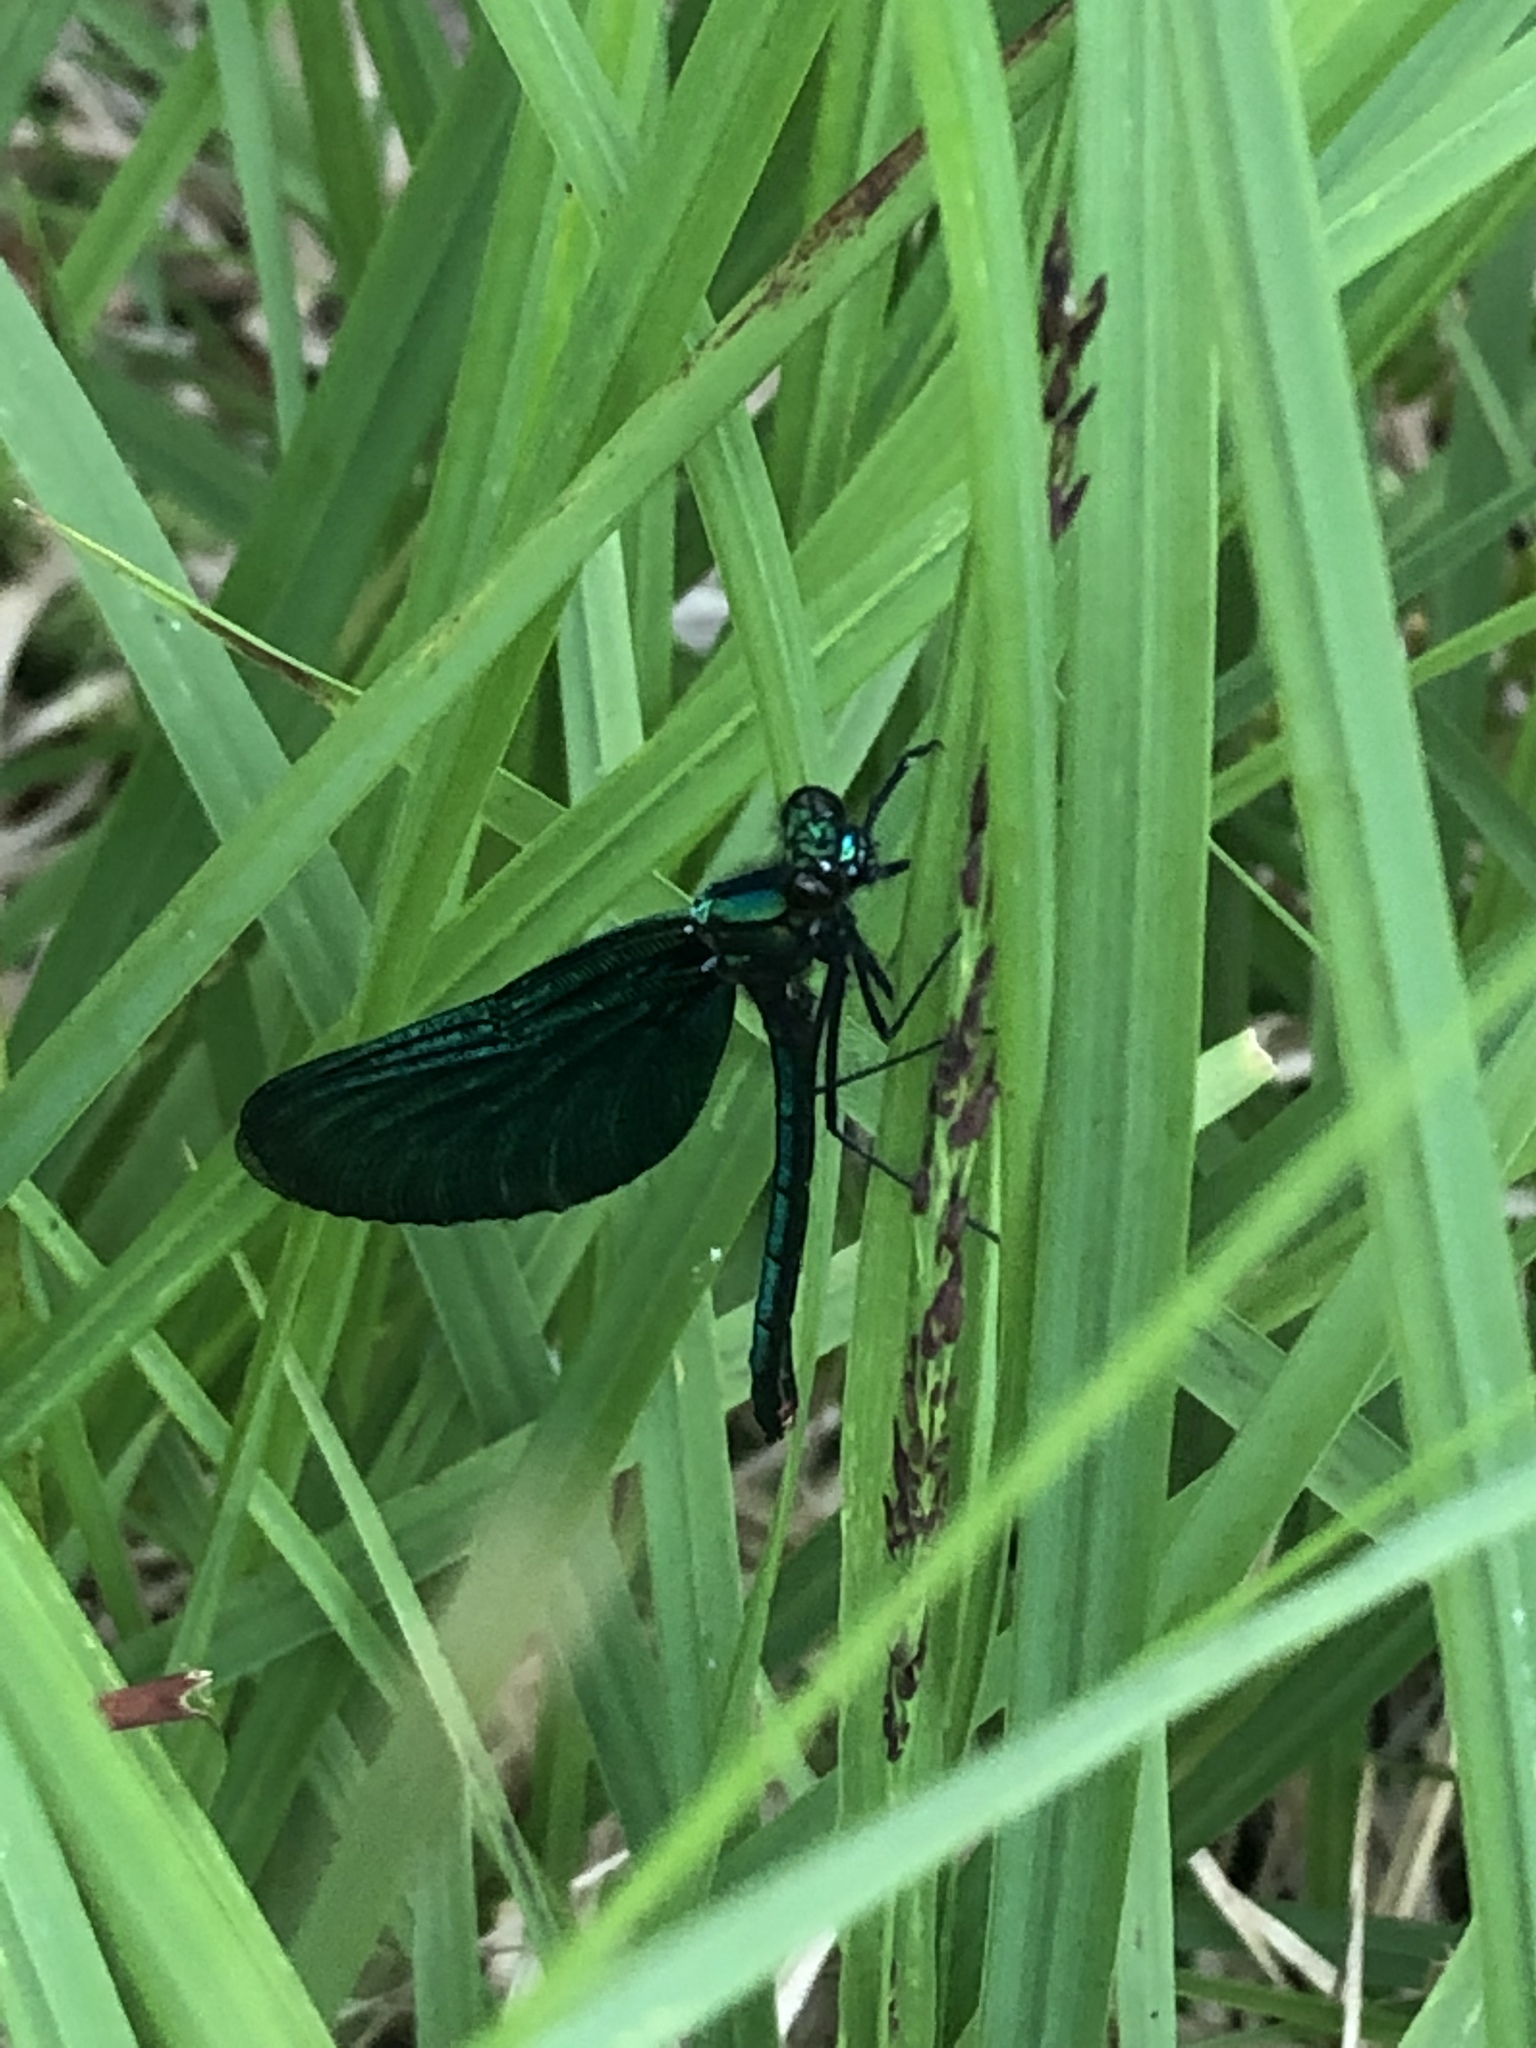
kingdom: Animalia
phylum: Arthropoda
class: Insecta
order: Odonata
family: Calopterygidae
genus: Calopteryx
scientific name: Calopteryx virgo
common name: Beautiful demoiselle
